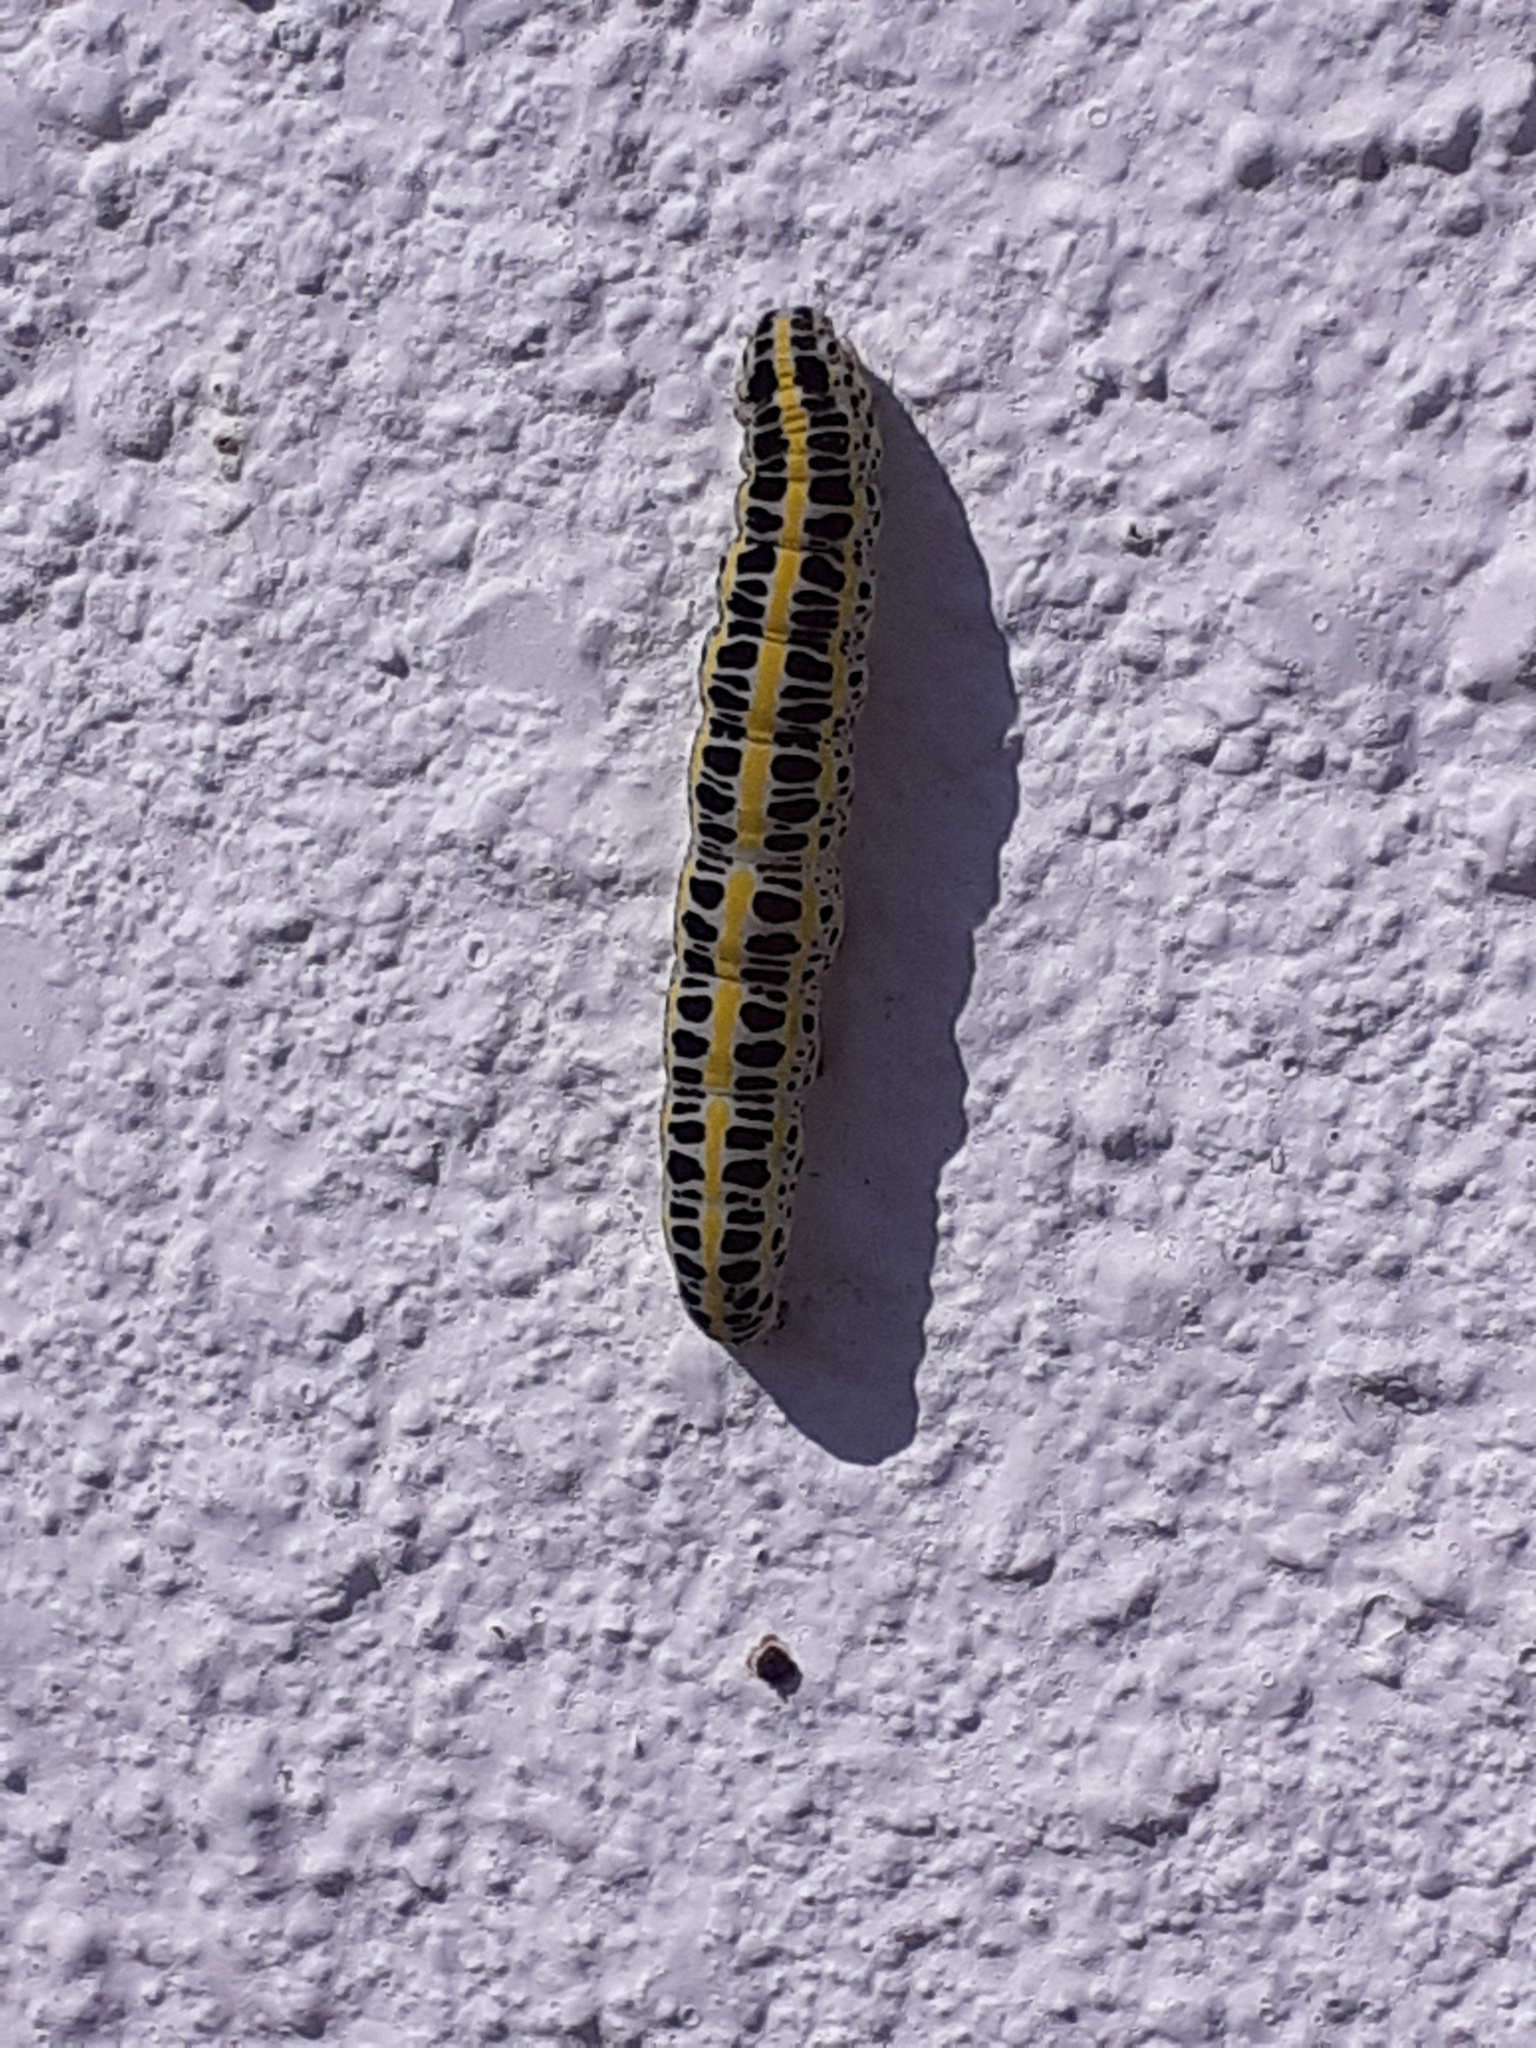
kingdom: Animalia
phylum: Arthropoda
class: Insecta
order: Lepidoptera
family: Noctuidae
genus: Calophasia
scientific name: Calophasia lunula
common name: Toadflax brocade
